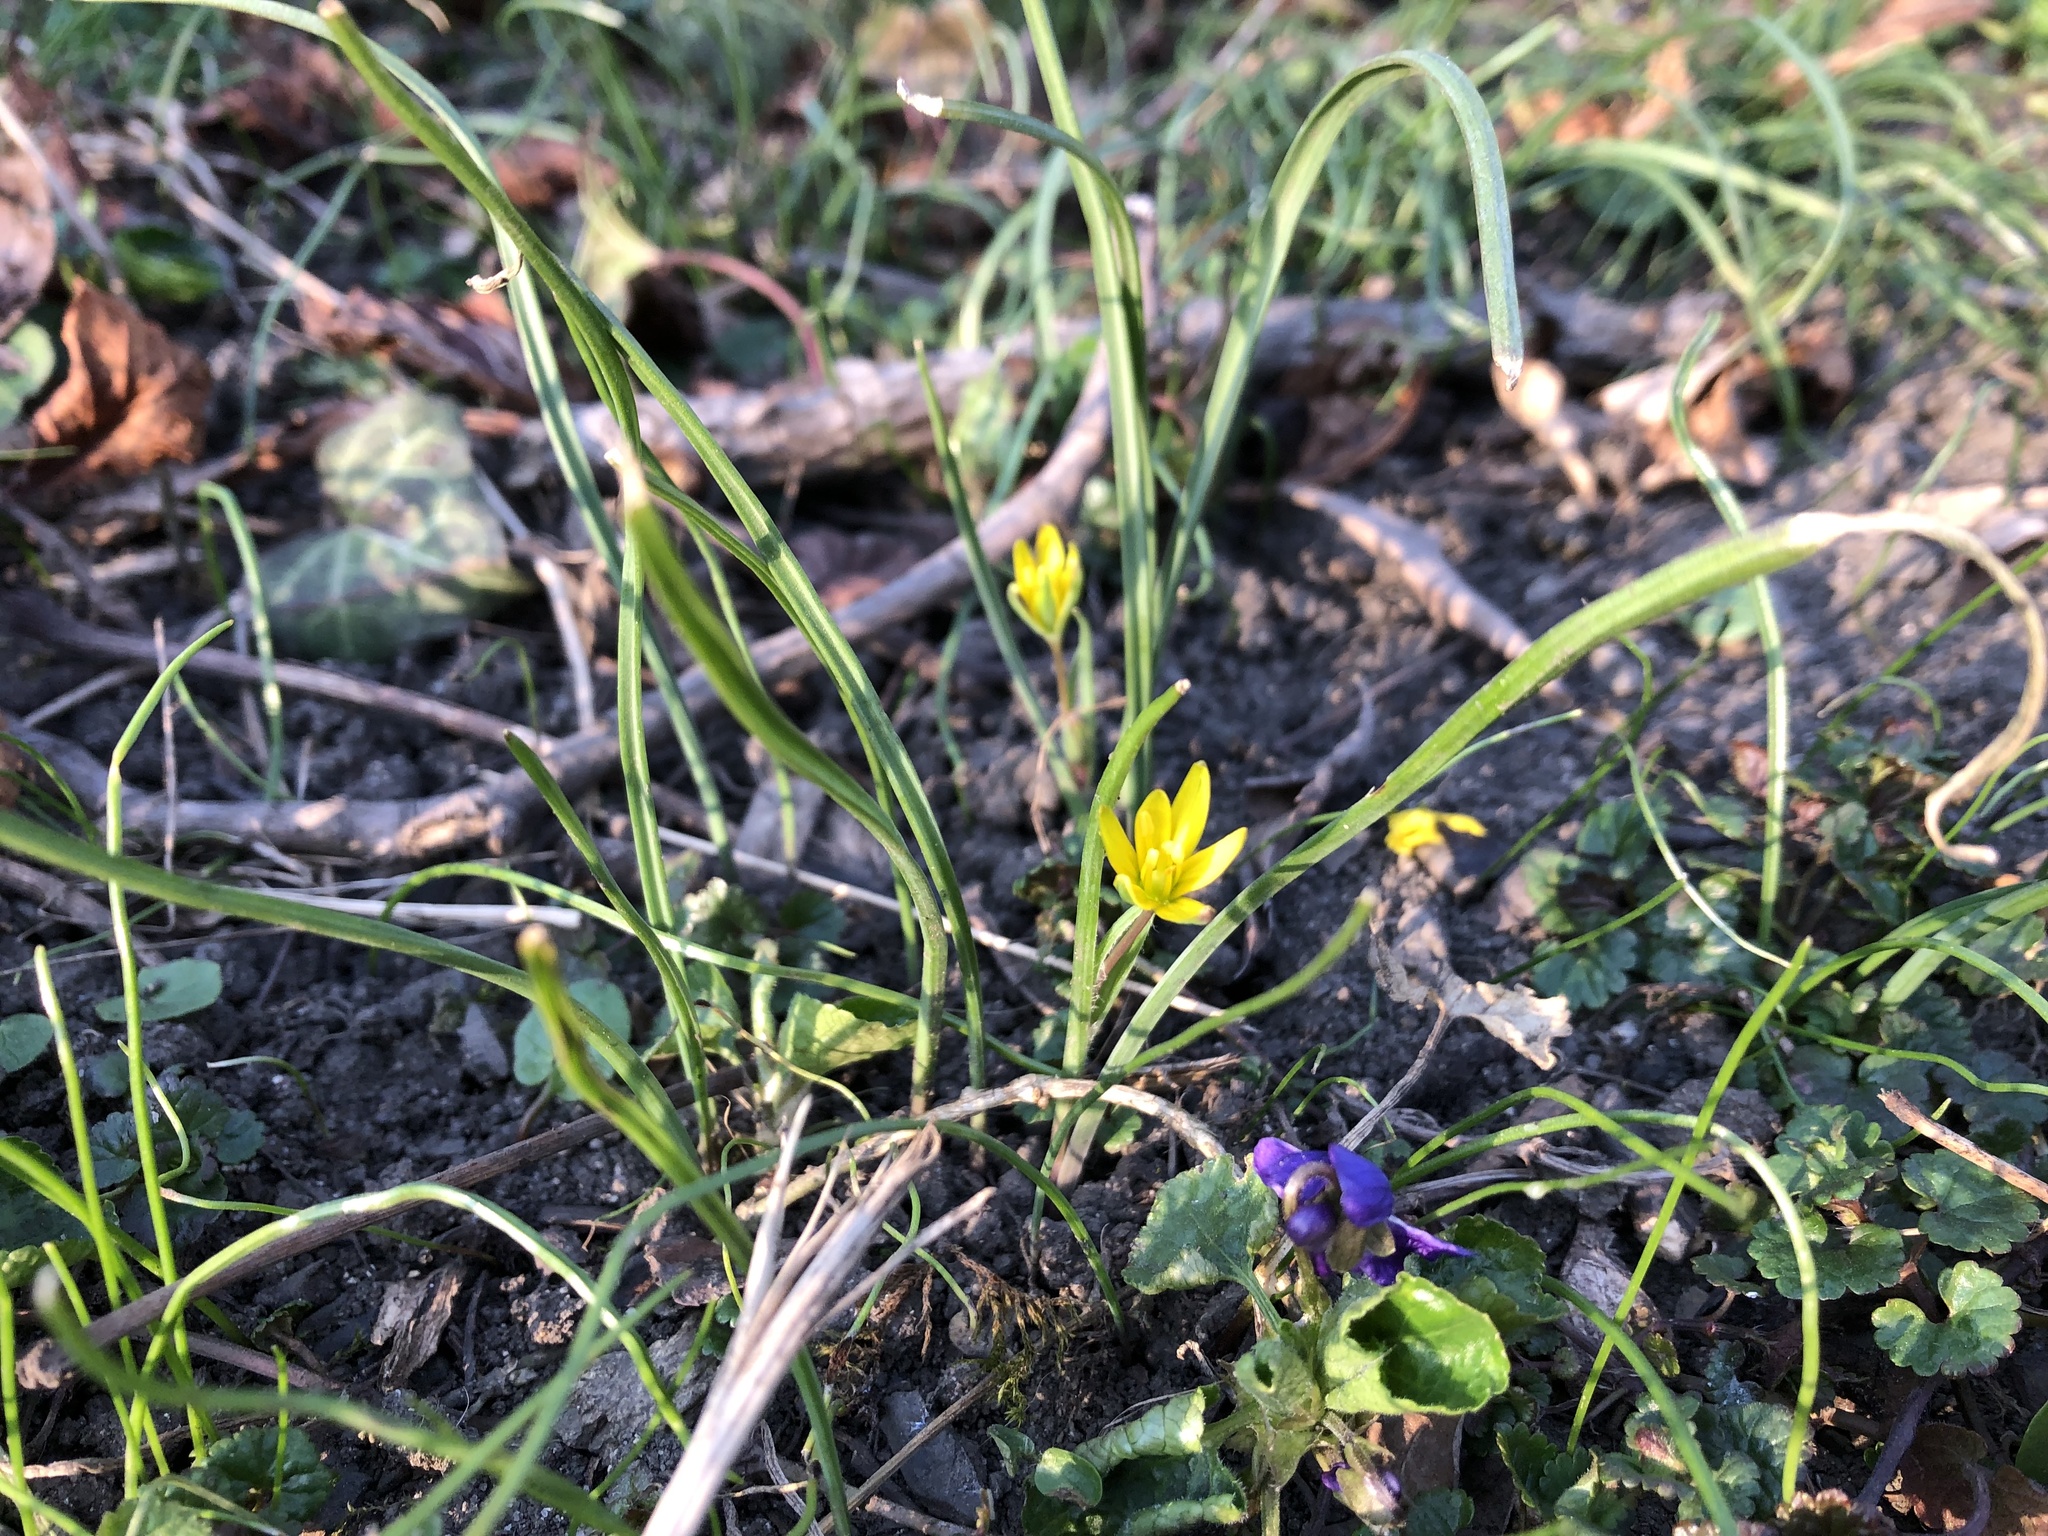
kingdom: Plantae
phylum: Tracheophyta
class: Liliopsida
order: Liliales
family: Liliaceae
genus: Gagea
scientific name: Gagea pratensis
